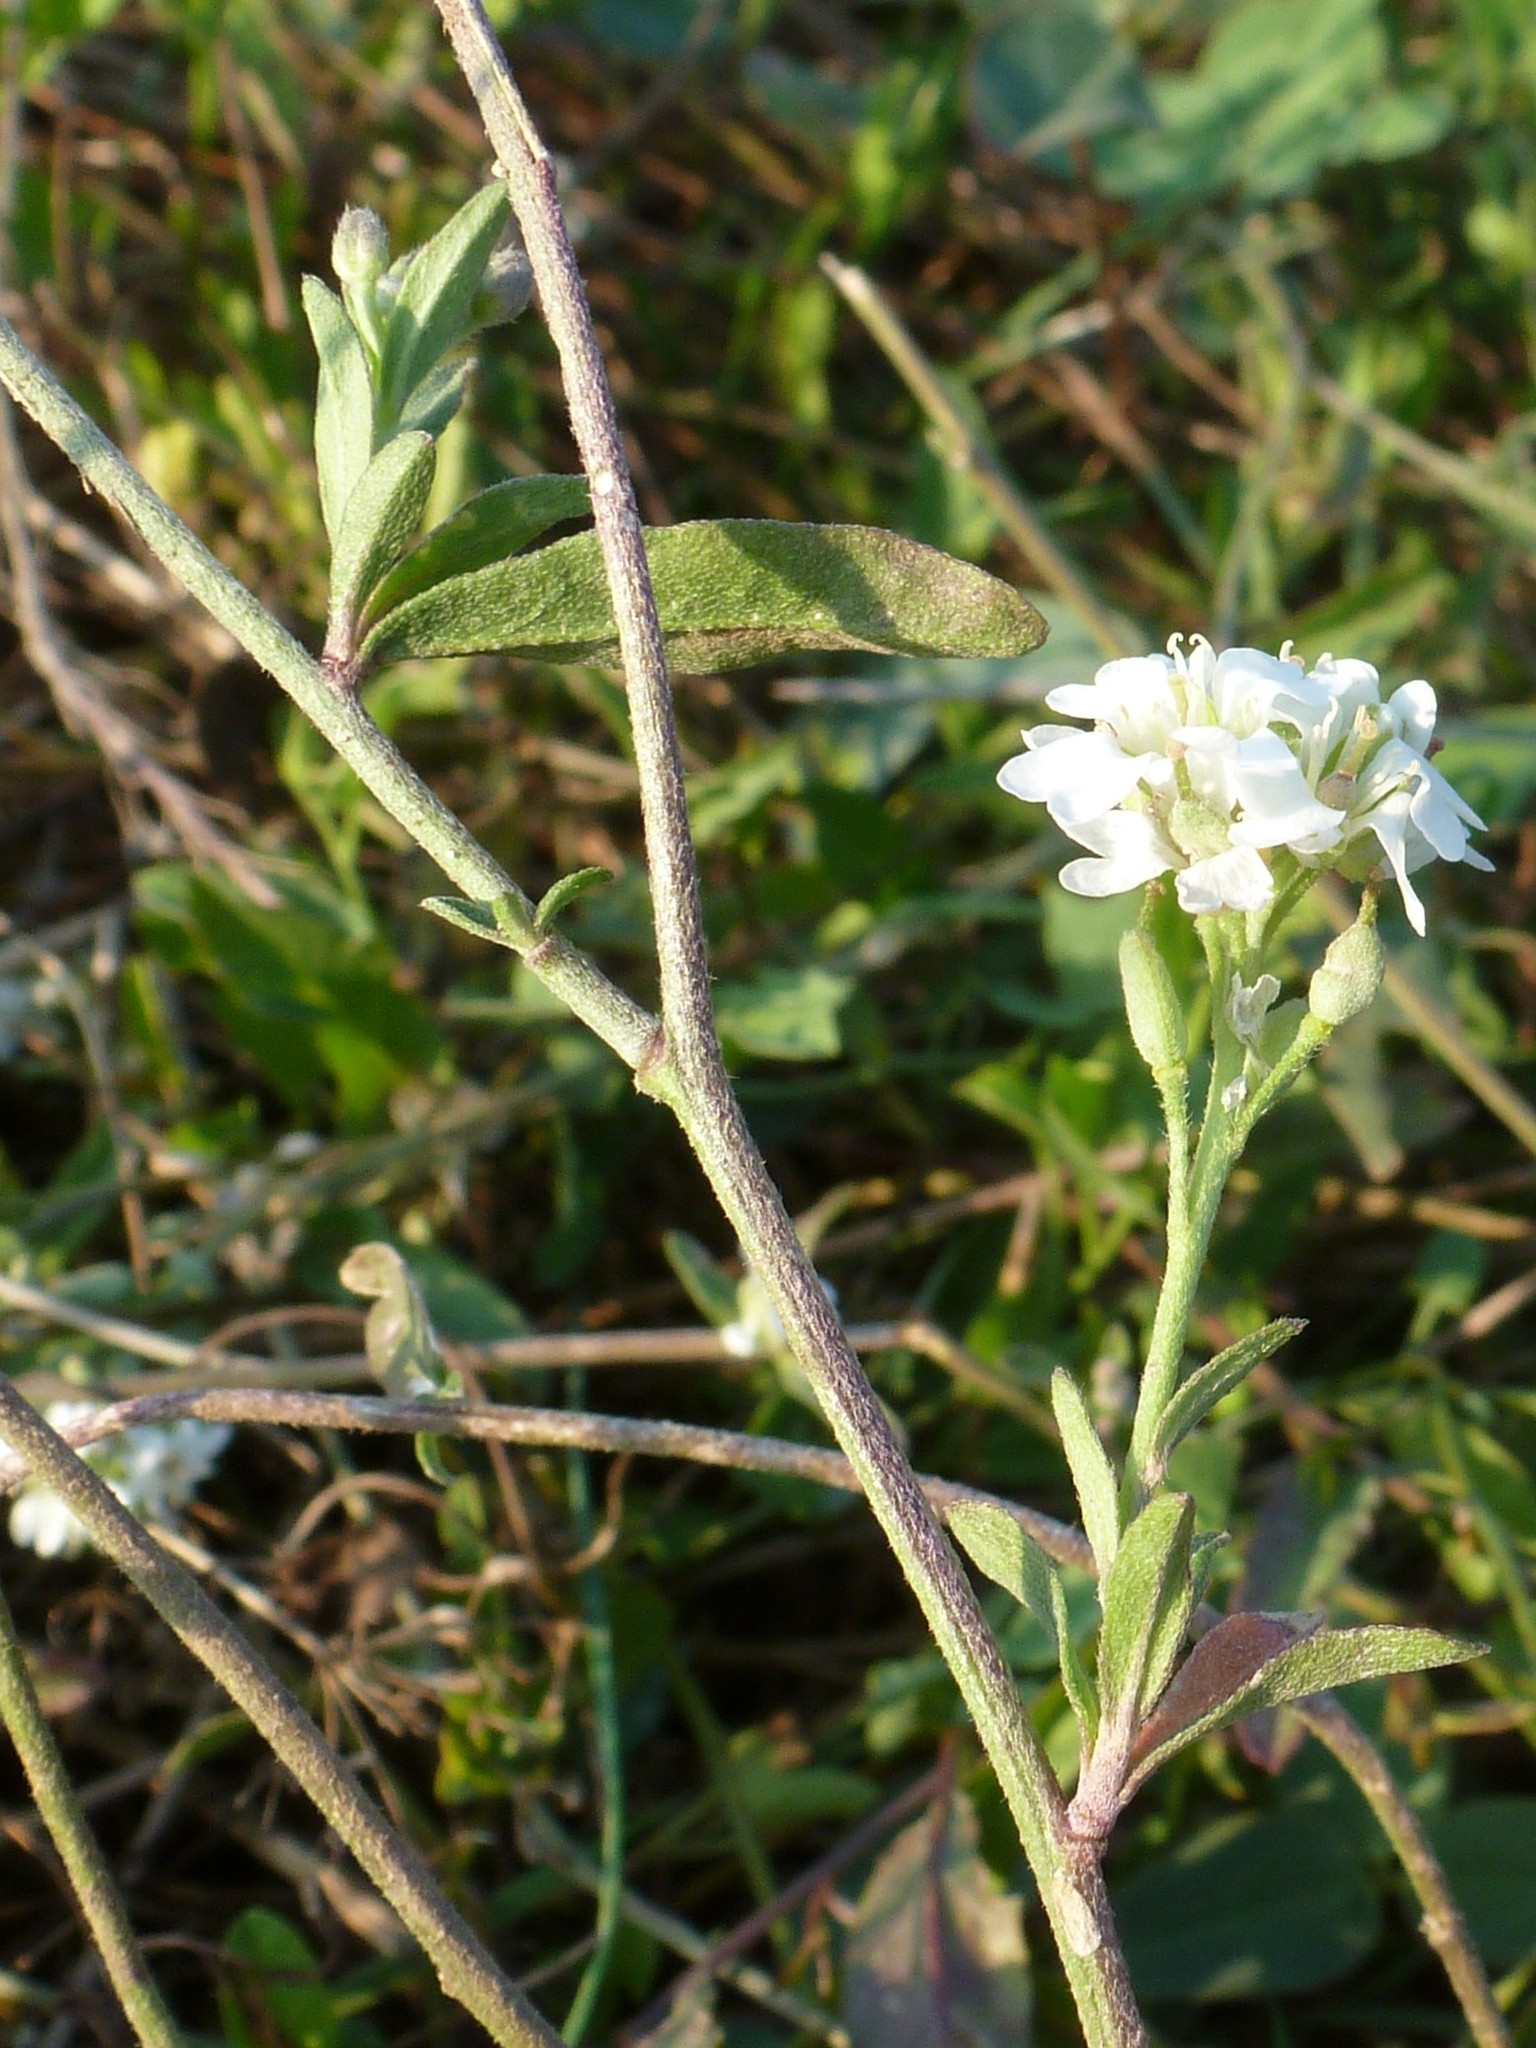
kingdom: Plantae
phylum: Tracheophyta
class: Magnoliopsida
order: Brassicales
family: Brassicaceae
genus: Berteroa
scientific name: Berteroa incana
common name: Hoary alison
